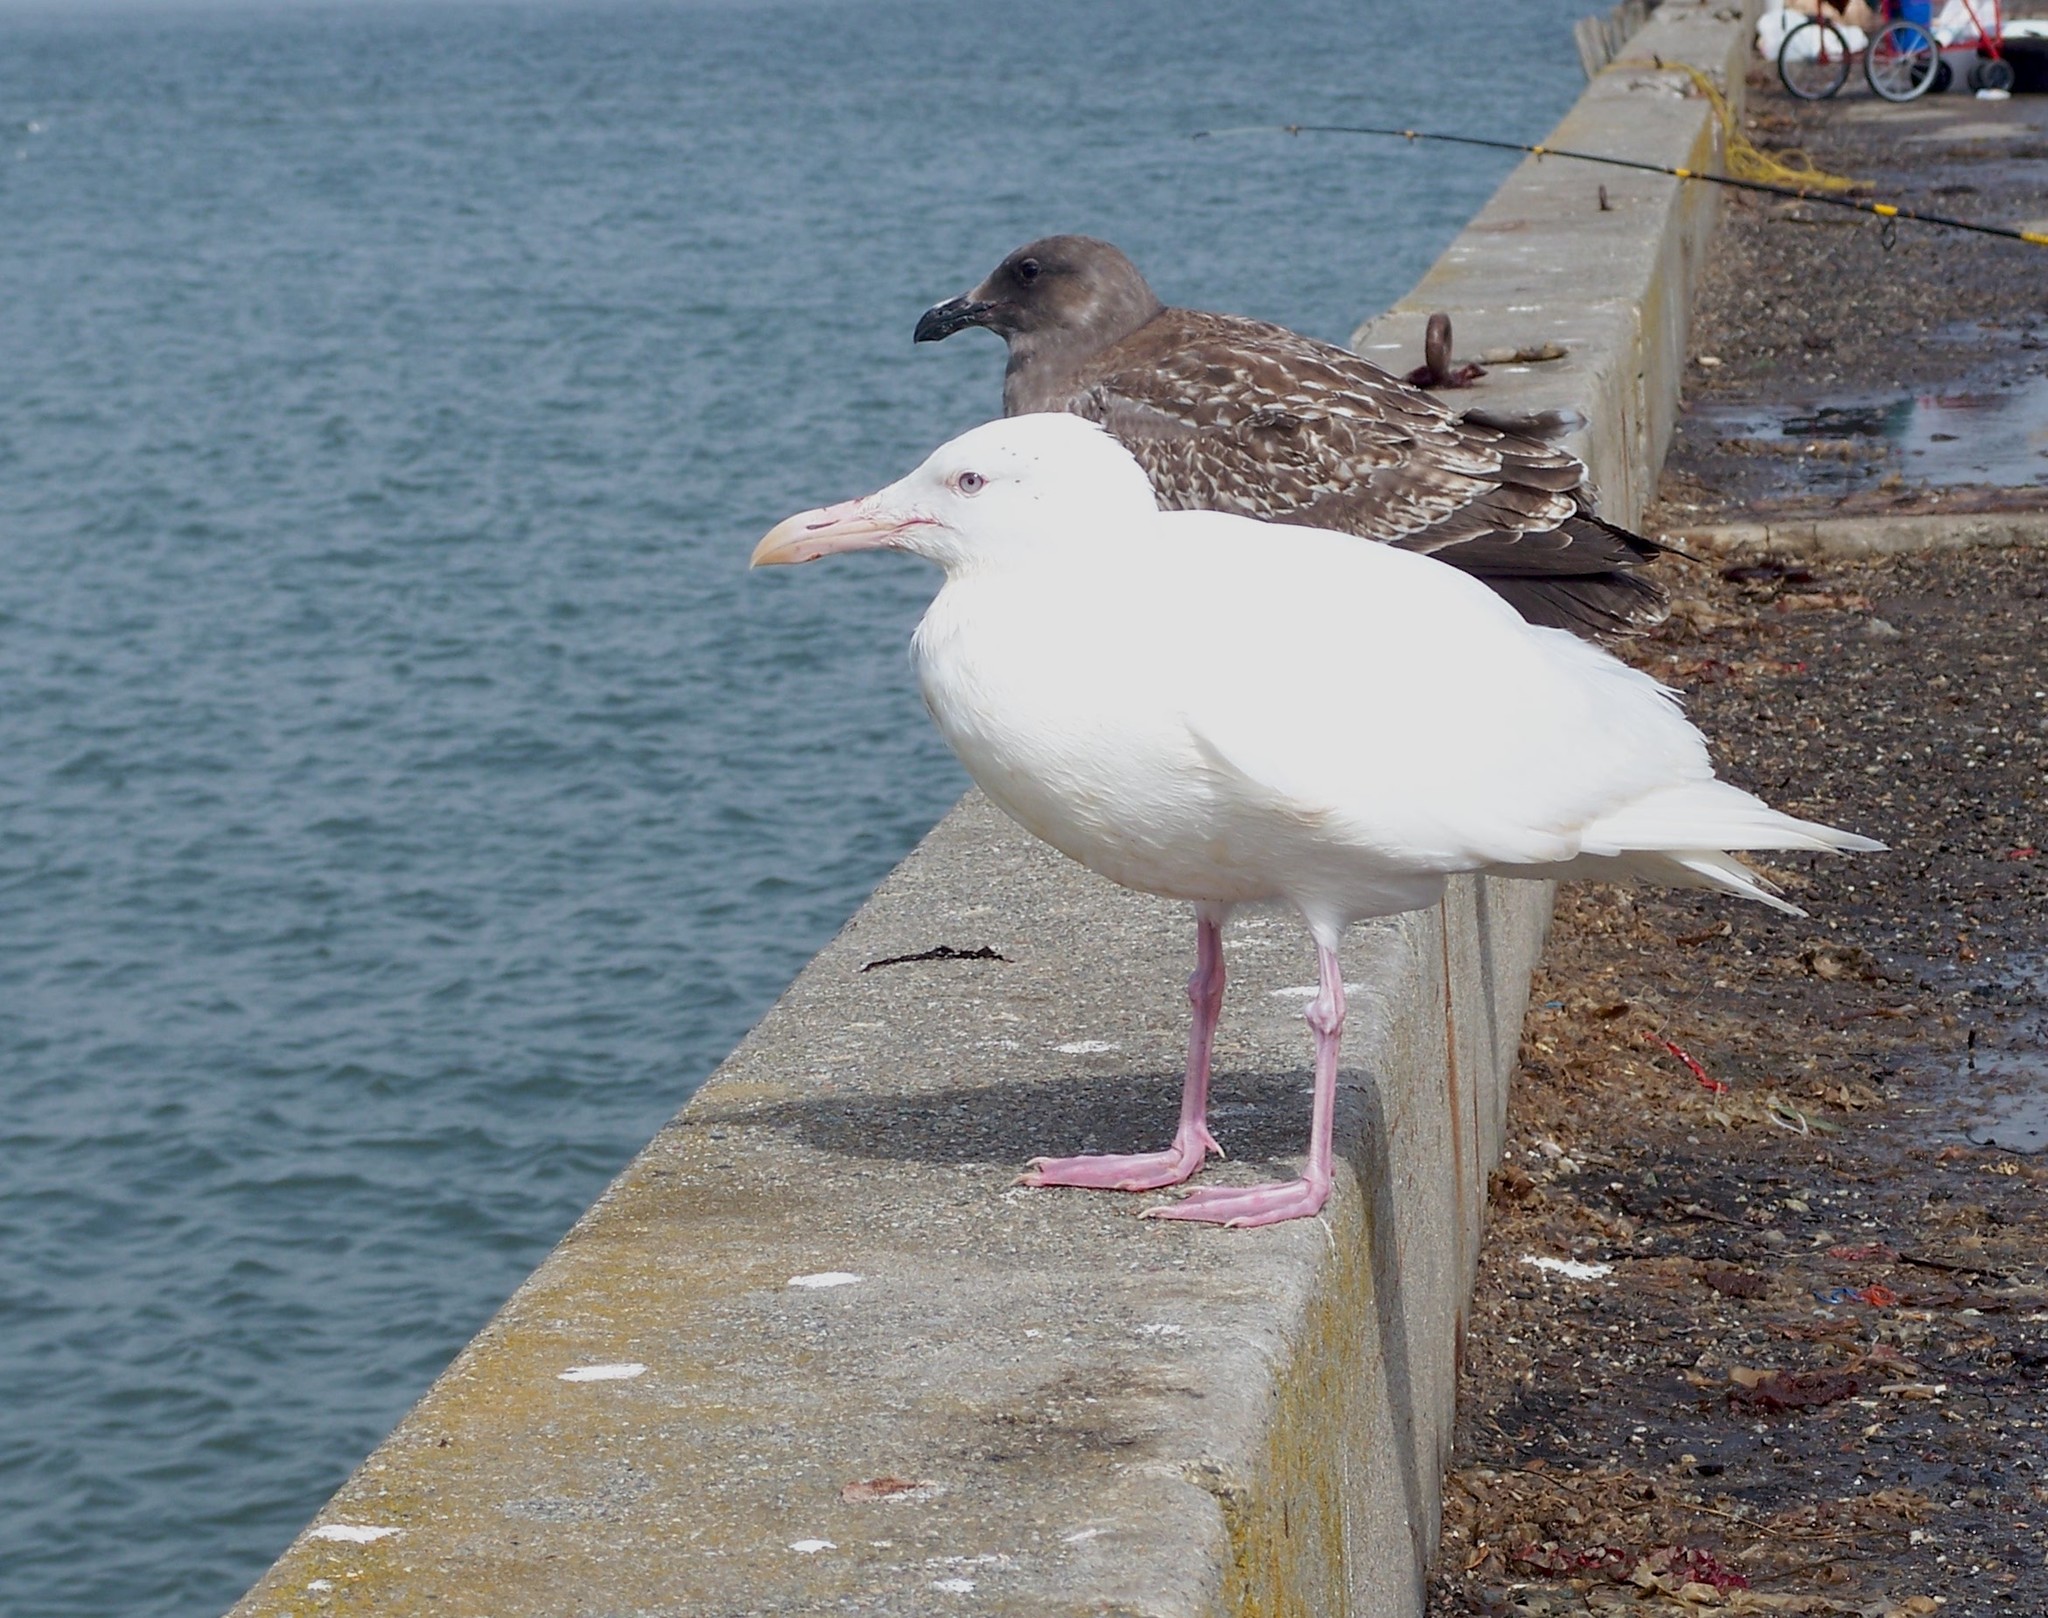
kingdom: Animalia
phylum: Chordata
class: Aves
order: Charadriiformes
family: Laridae
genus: Larus
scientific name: Larus
